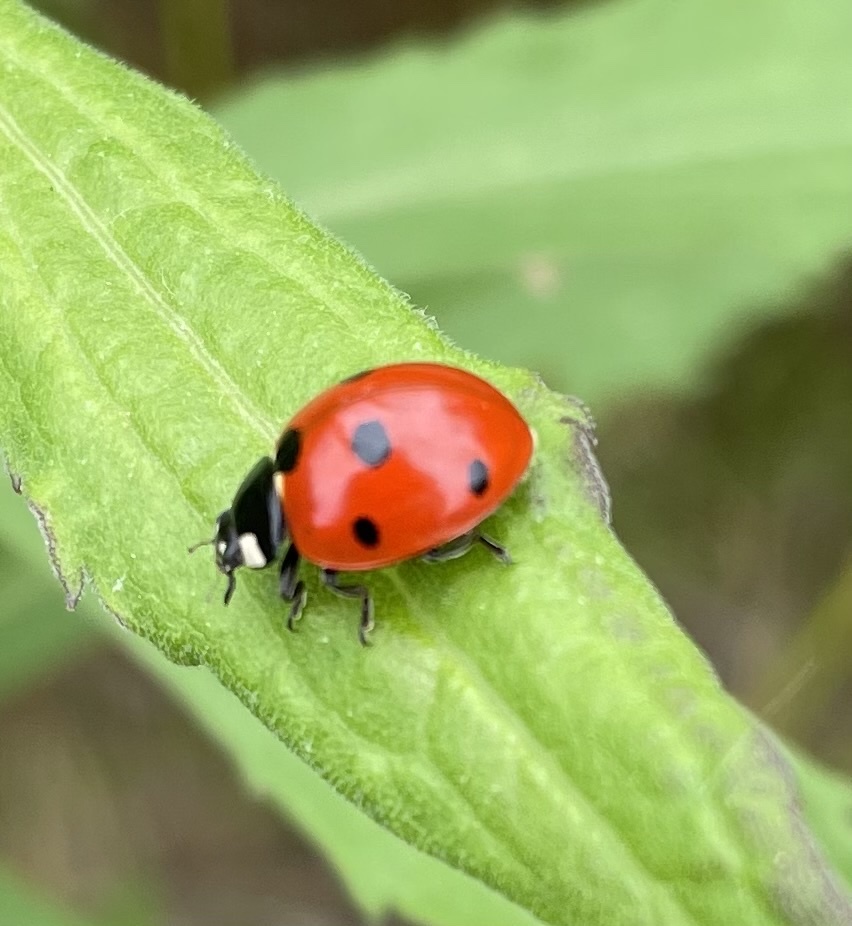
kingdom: Animalia
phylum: Arthropoda
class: Insecta
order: Coleoptera
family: Coccinellidae
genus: Coccinella
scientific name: Coccinella septempunctata
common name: Sevenspotted lady beetle
